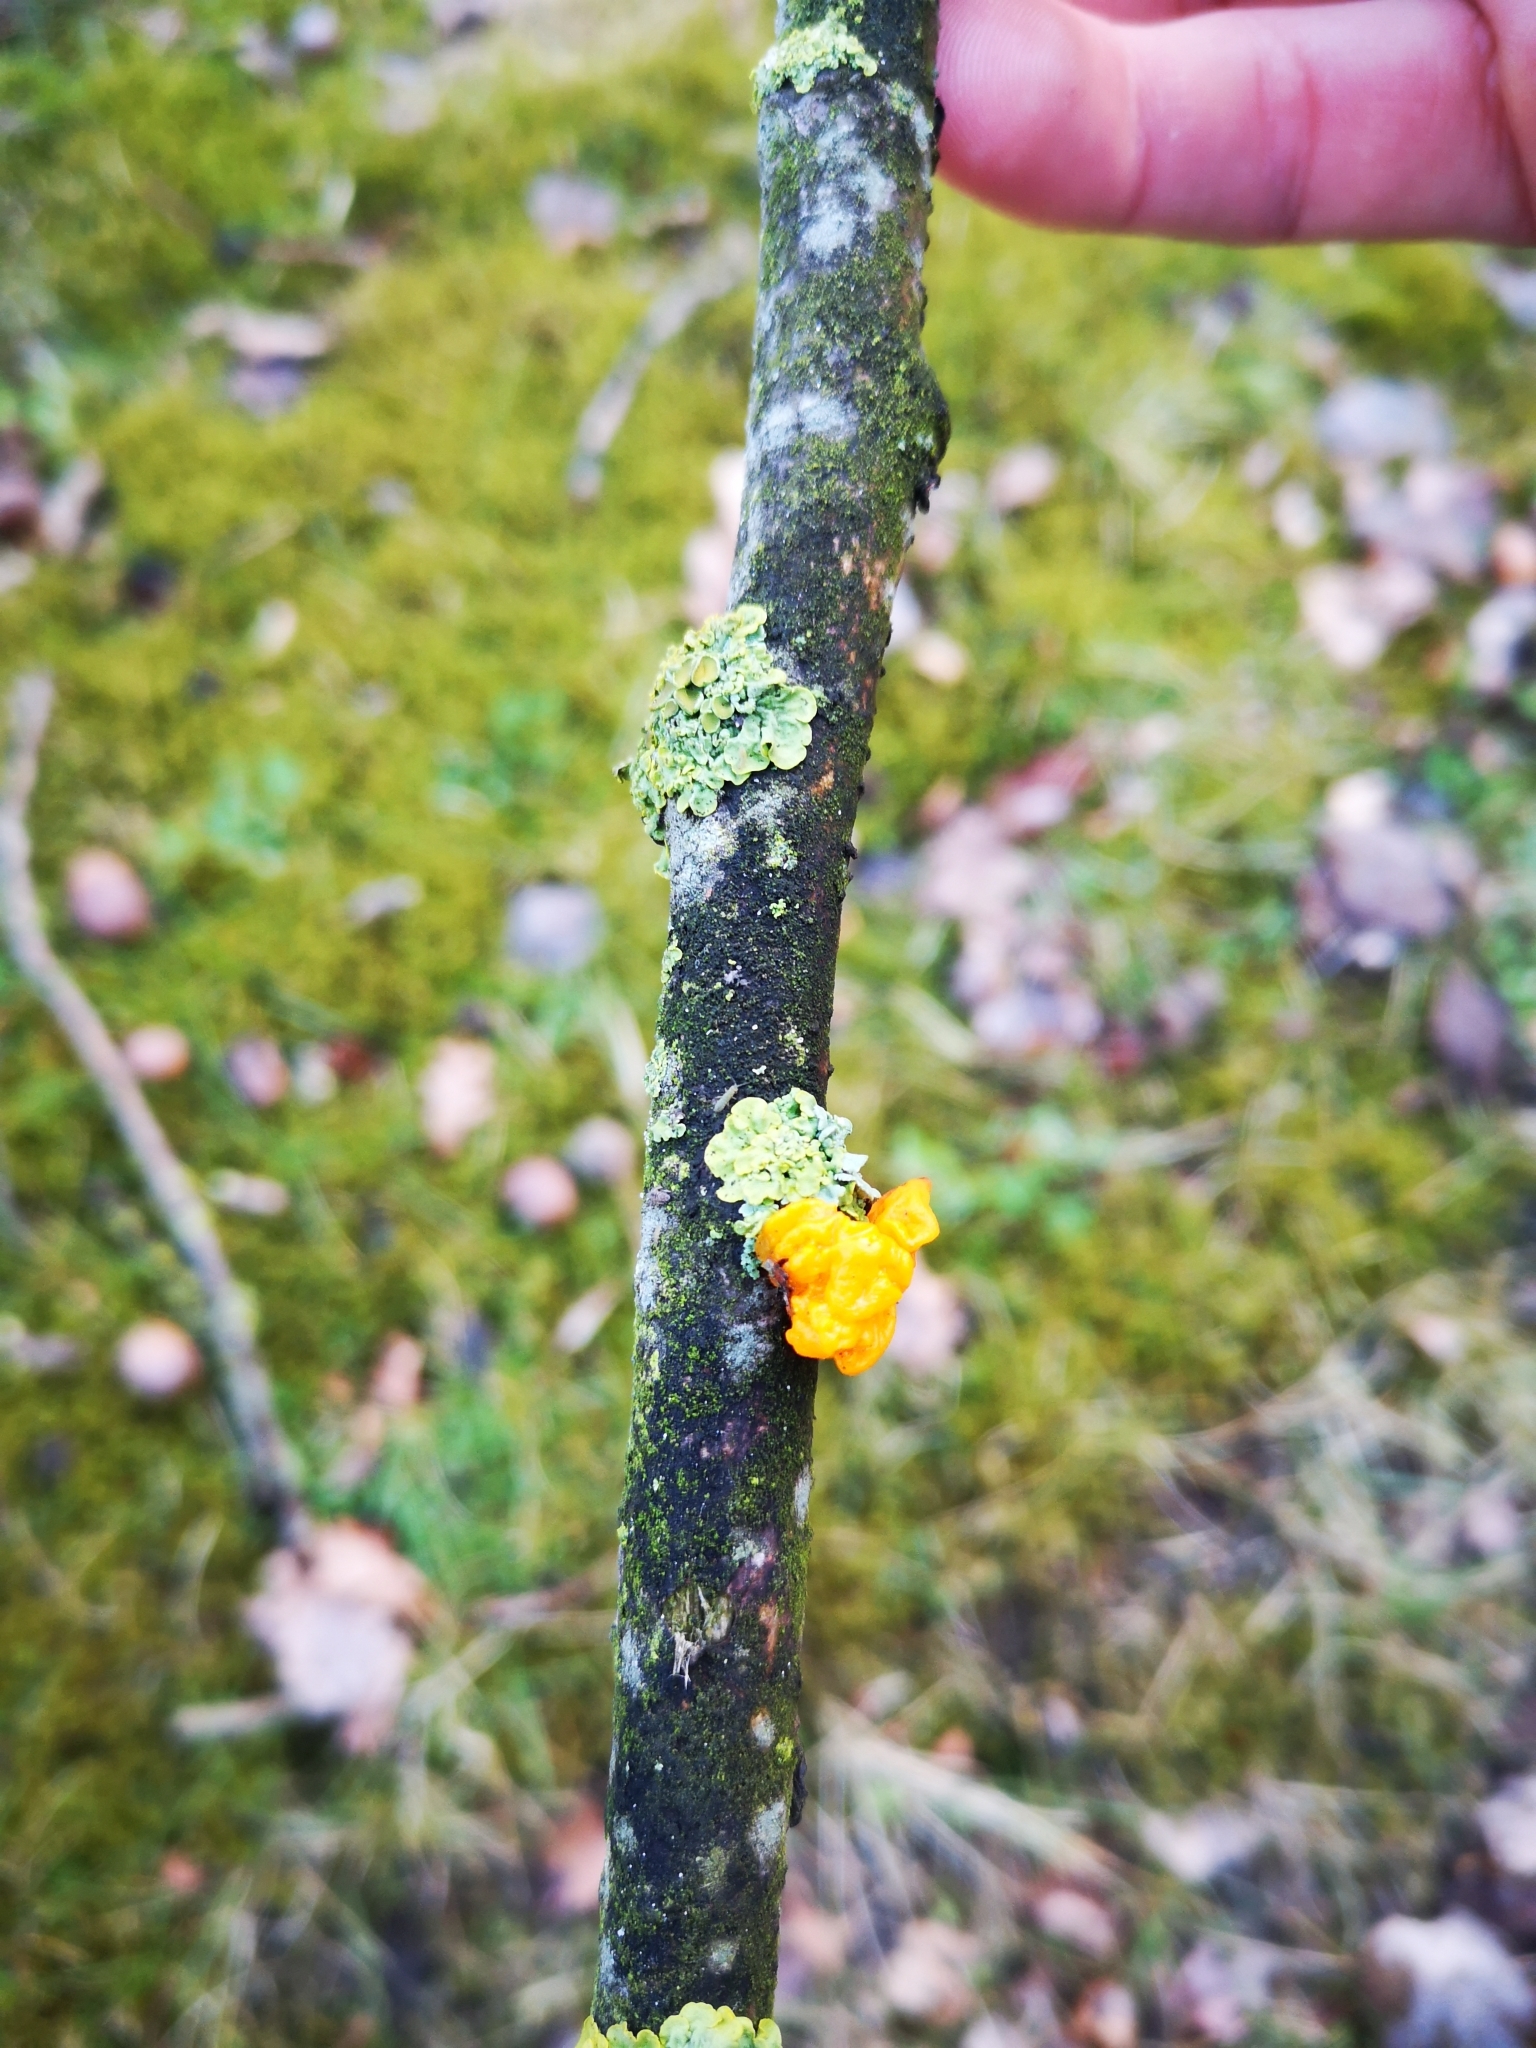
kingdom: Fungi
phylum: Basidiomycota
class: Tremellomycetes
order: Tremellales
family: Tremellaceae
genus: Tremella
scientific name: Tremella mesenterica
